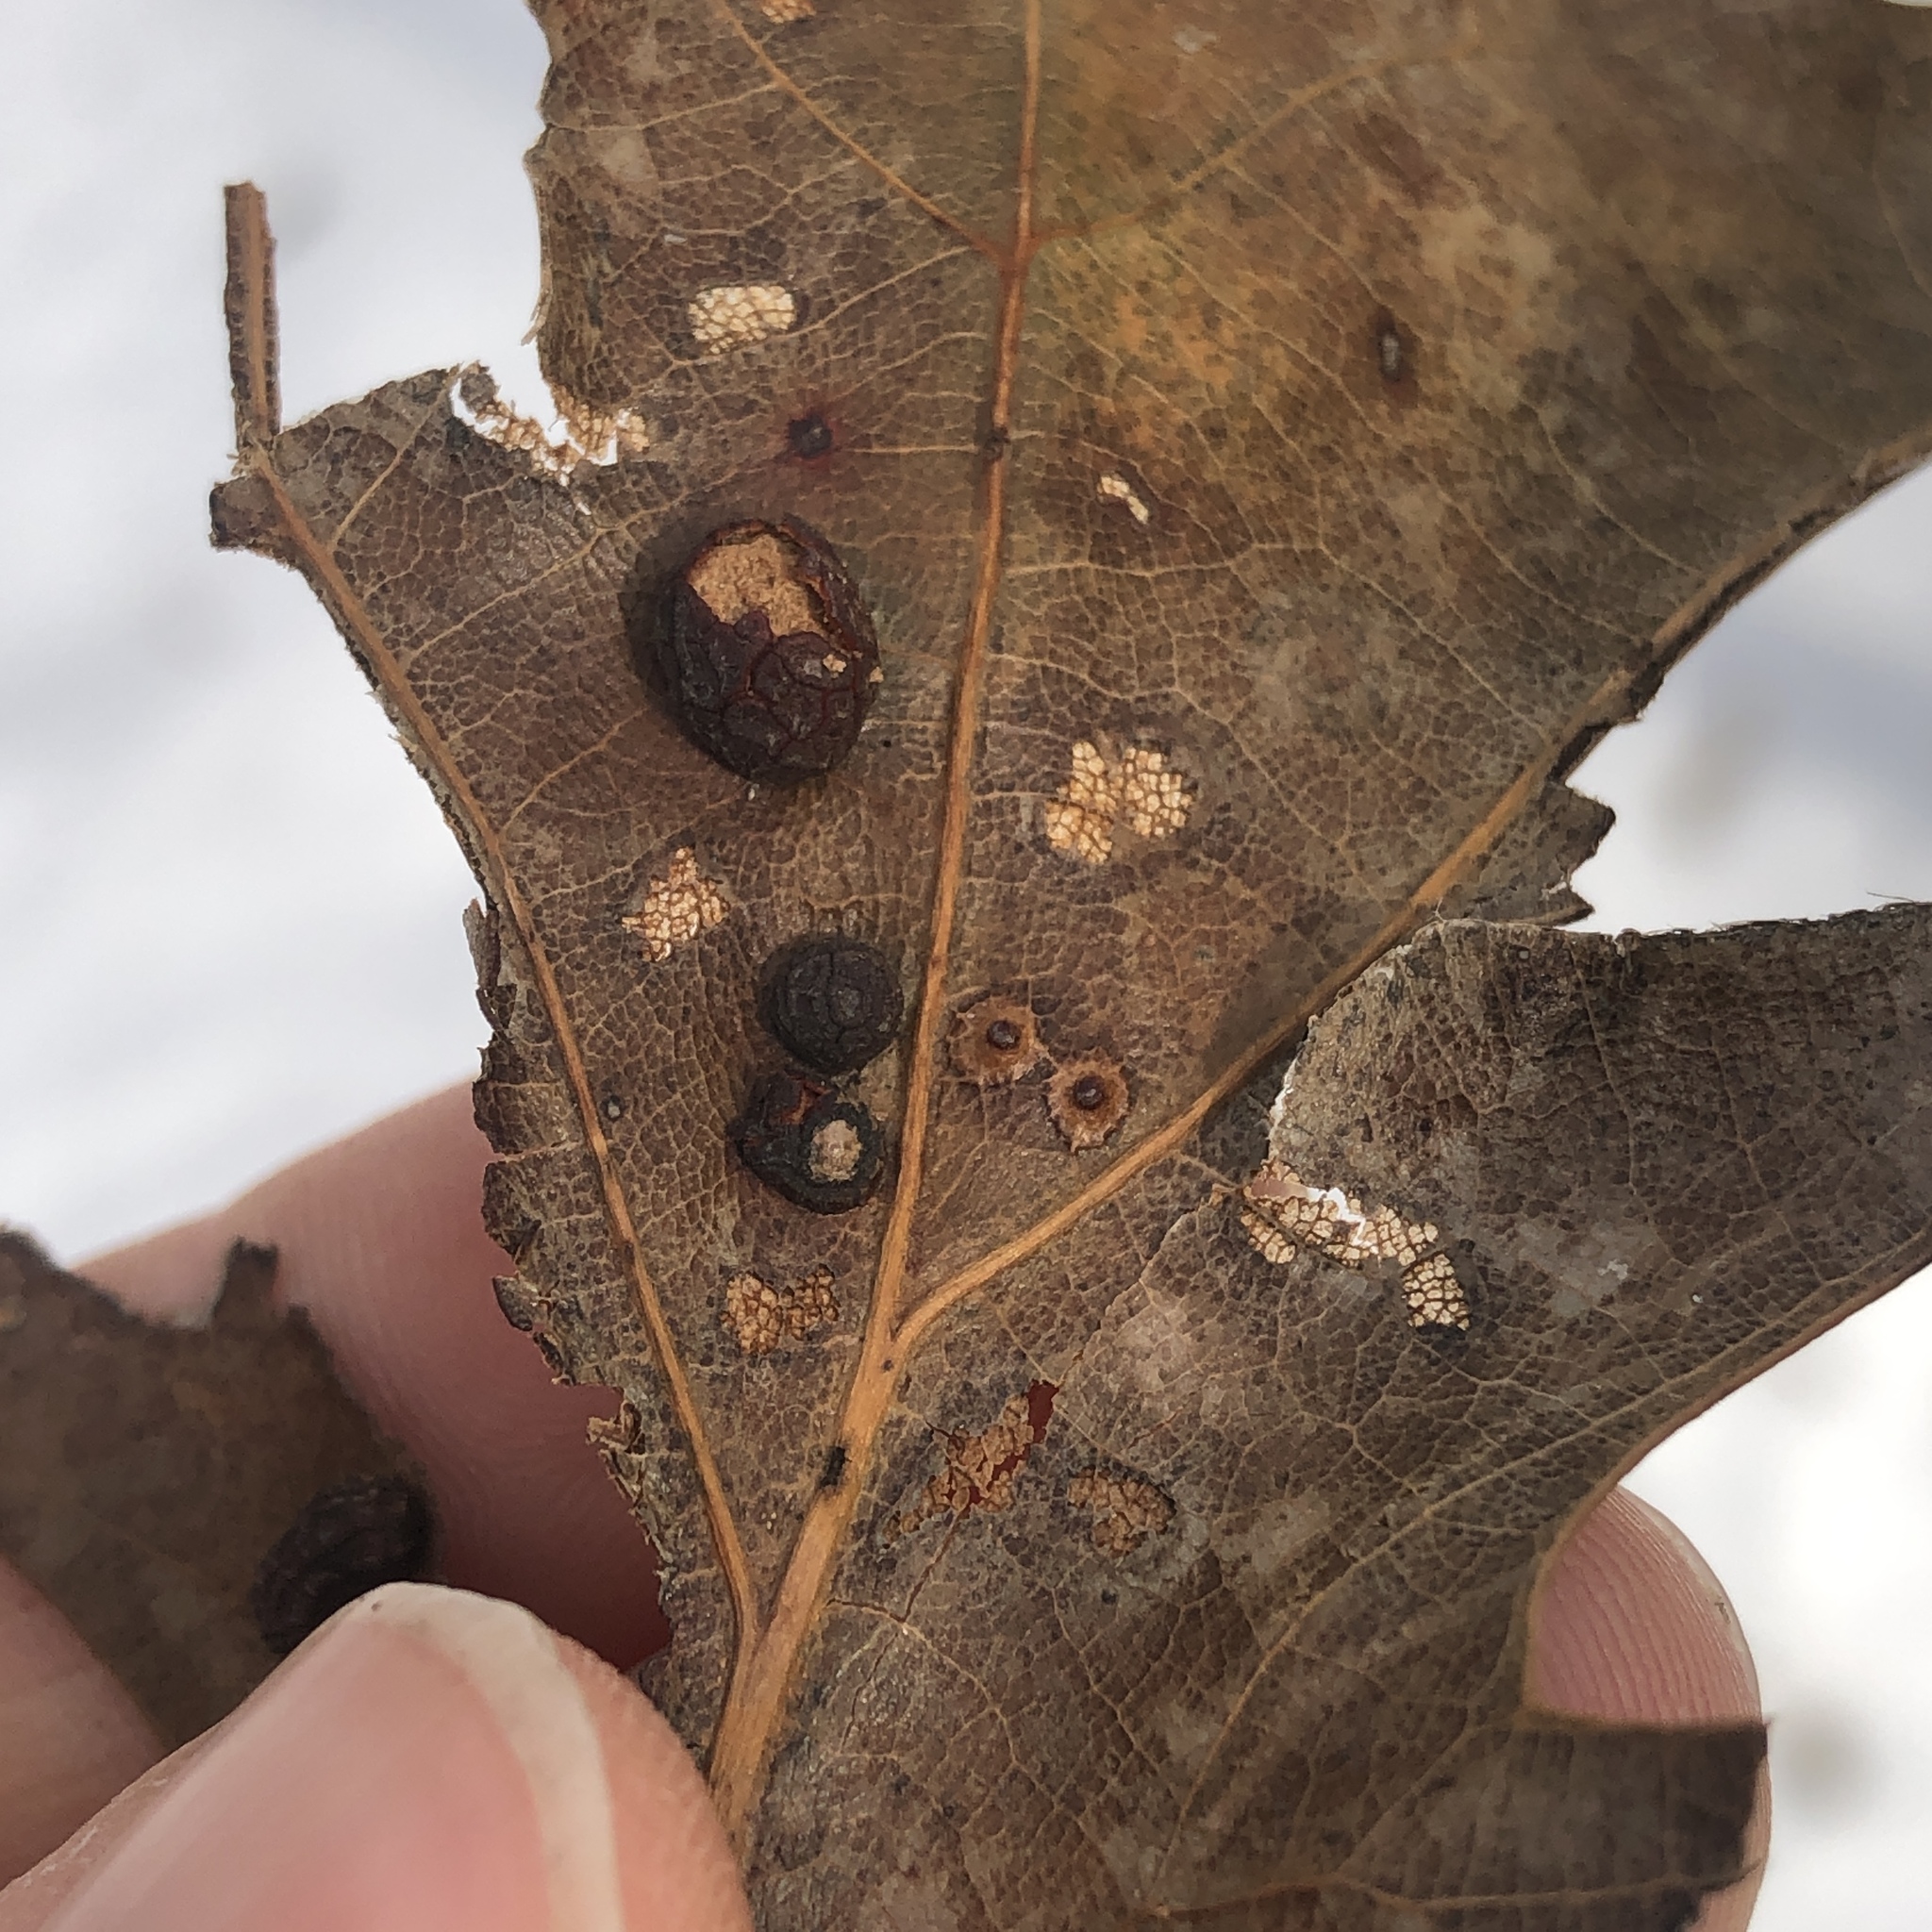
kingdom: Animalia
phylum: Arthropoda
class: Insecta
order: Diptera
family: Cecidomyiidae
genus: Polystepha
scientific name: Polystepha pilulae
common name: Oak leaf gall midge
